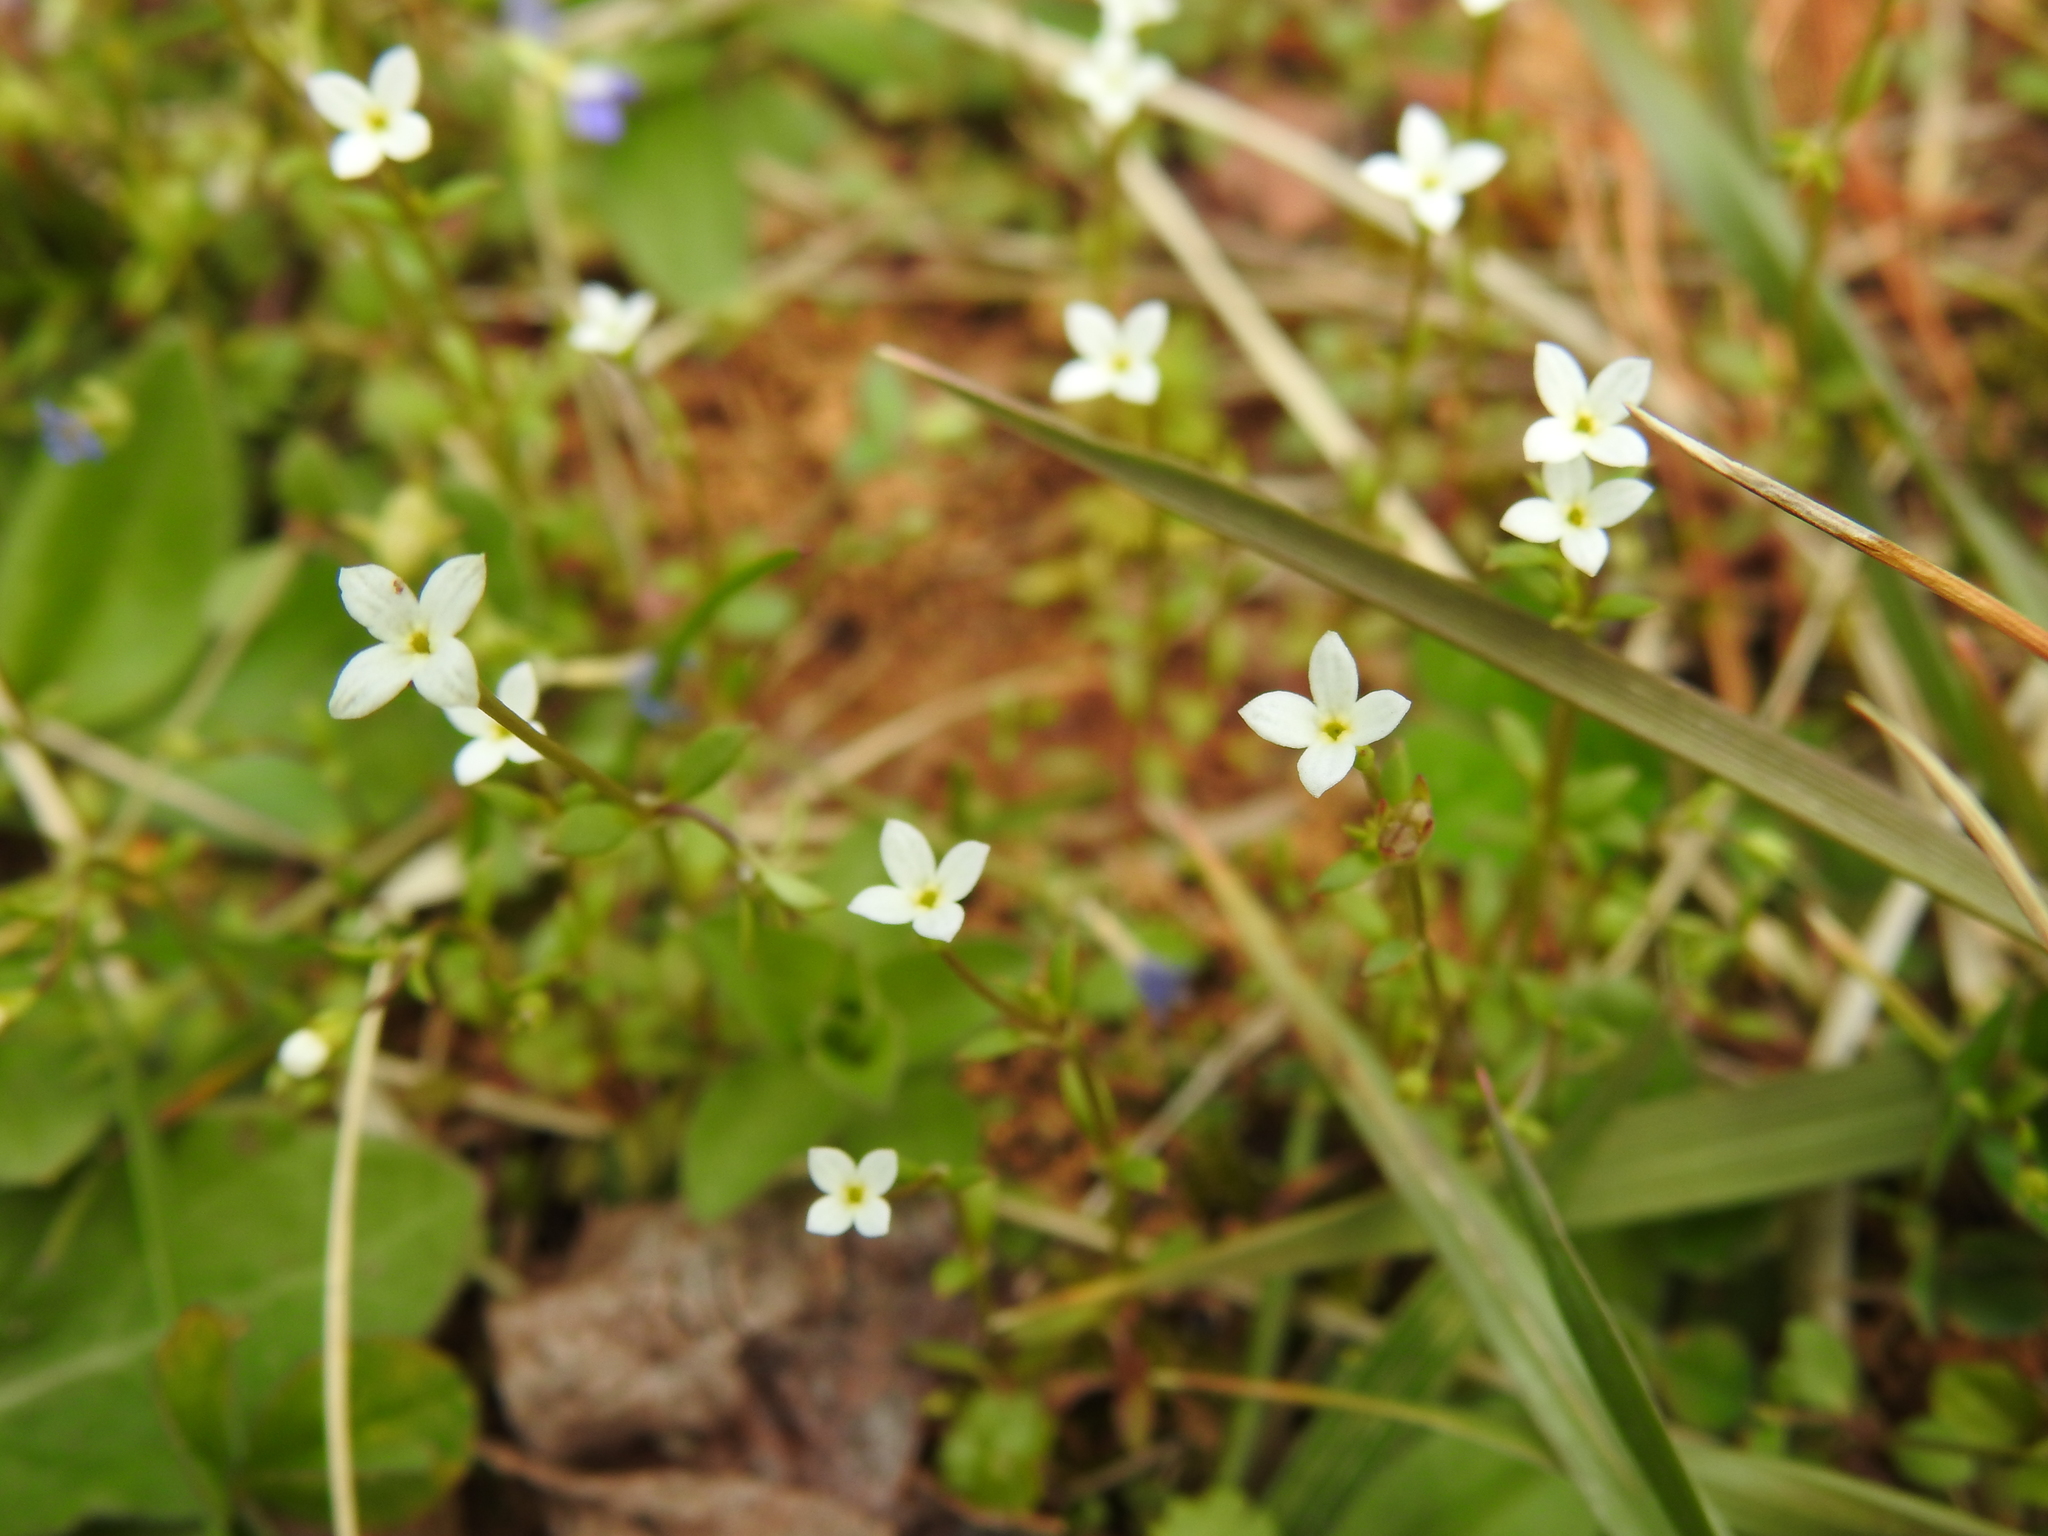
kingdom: Plantae
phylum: Tracheophyta
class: Magnoliopsida
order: Gentianales
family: Rubiaceae
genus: Houstonia
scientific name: Houstonia caerulea
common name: Bluets
